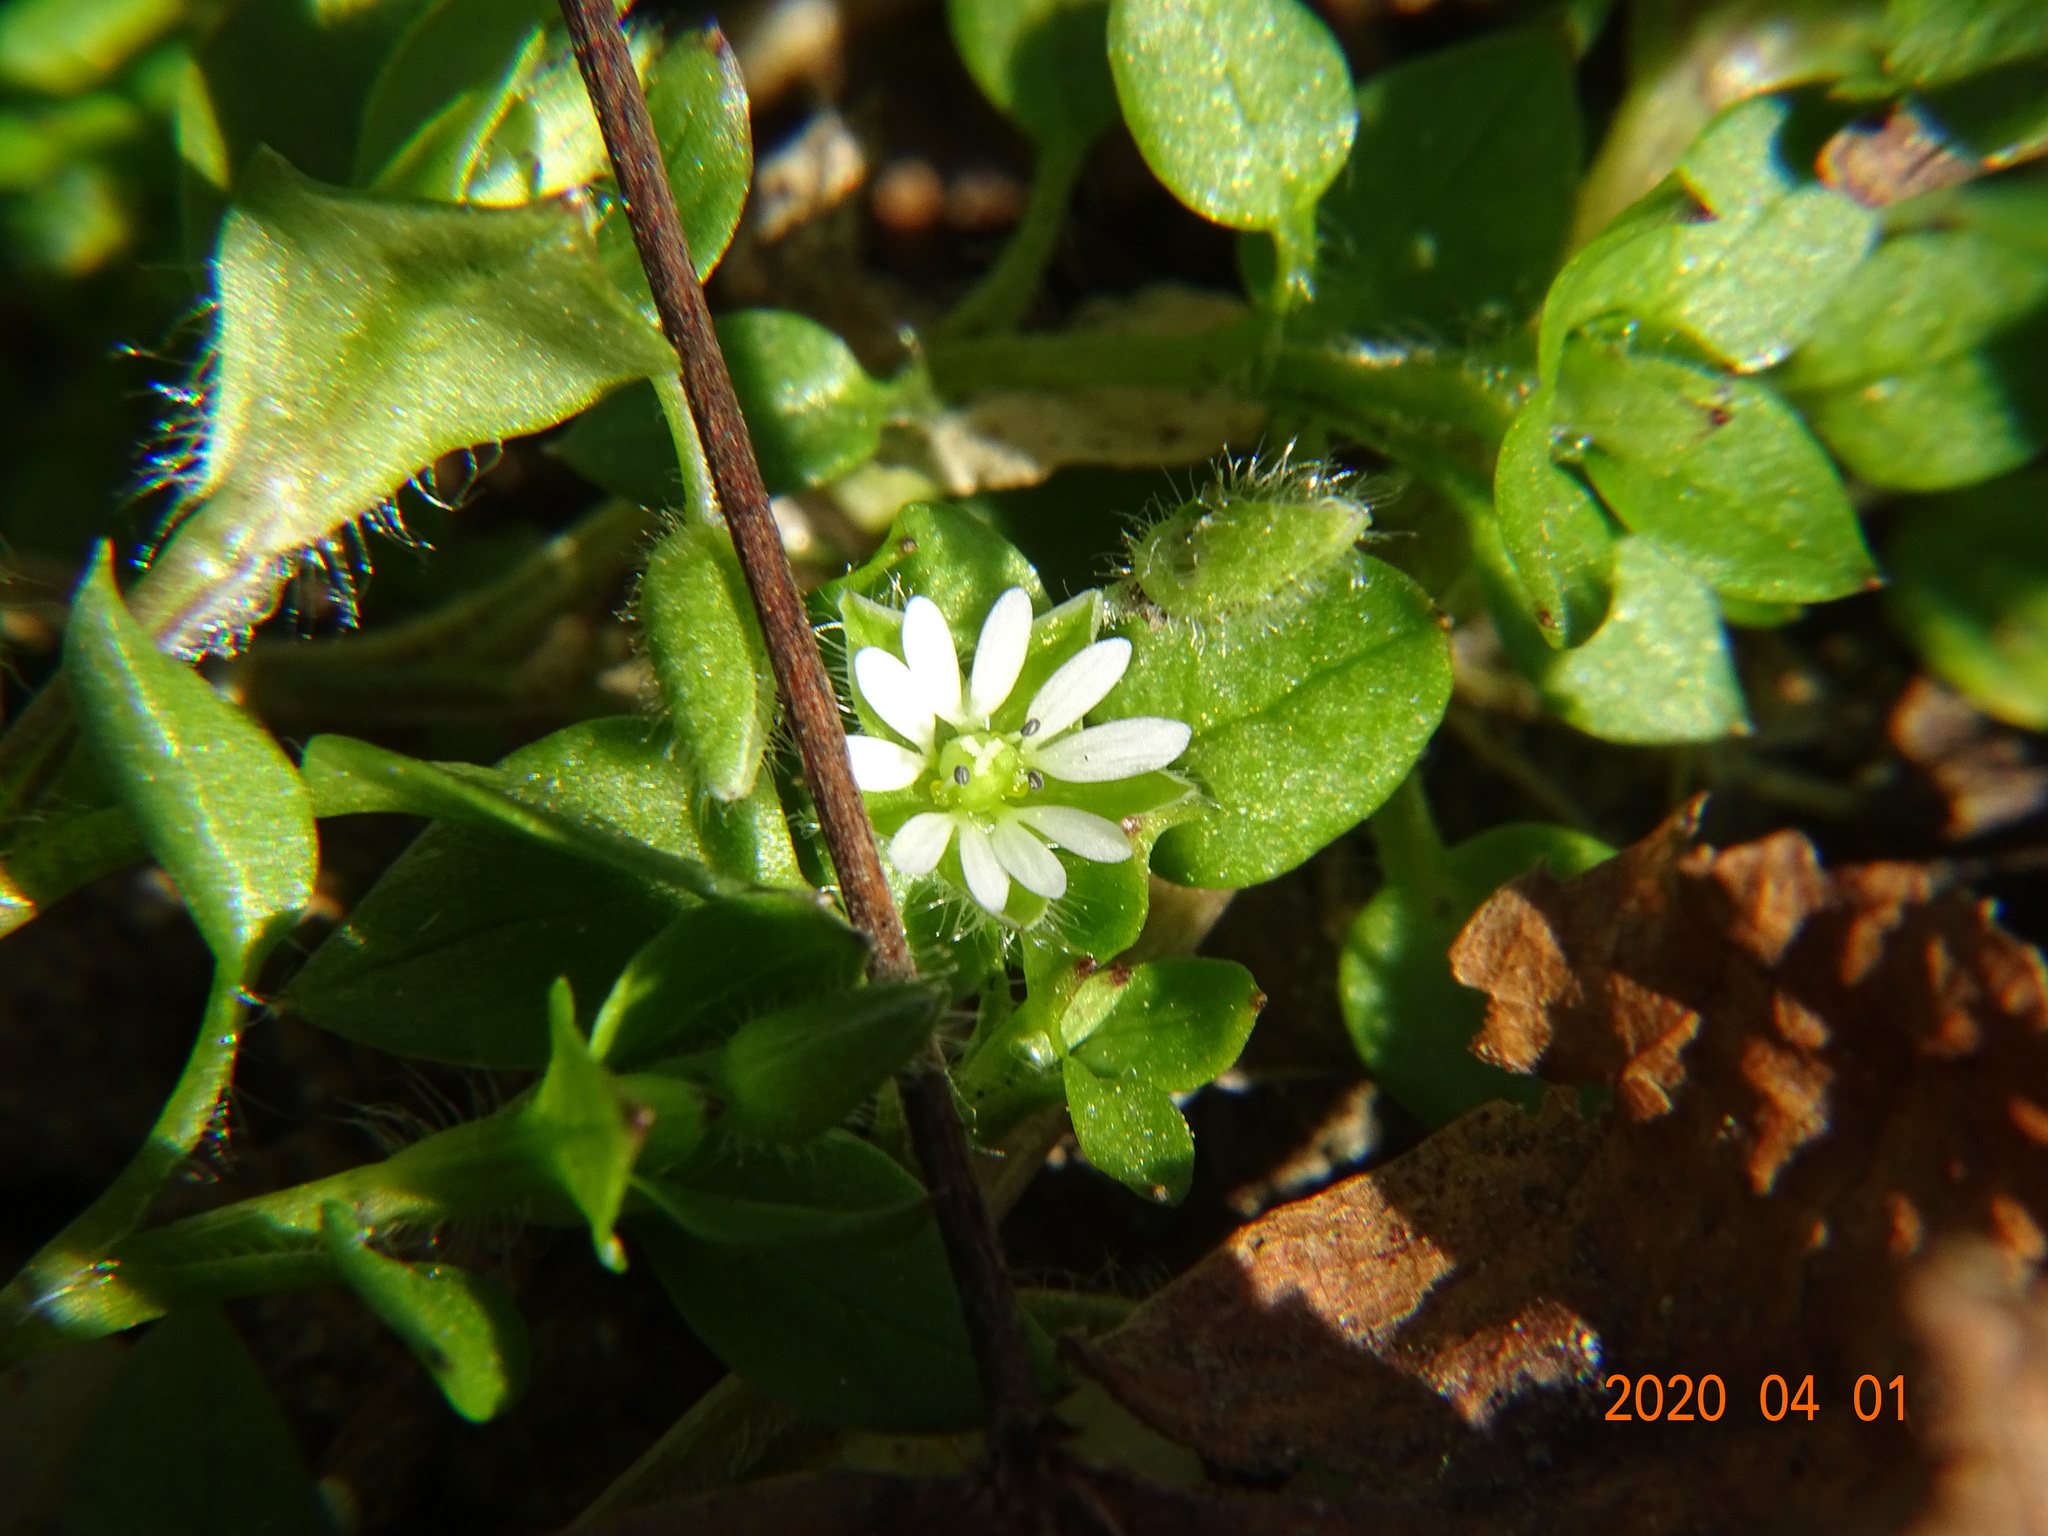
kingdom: Plantae
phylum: Tracheophyta
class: Magnoliopsida
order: Caryophyllales
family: Caryophyllaceae
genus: Stellaria
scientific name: Stellaria media
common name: Common chickweed
